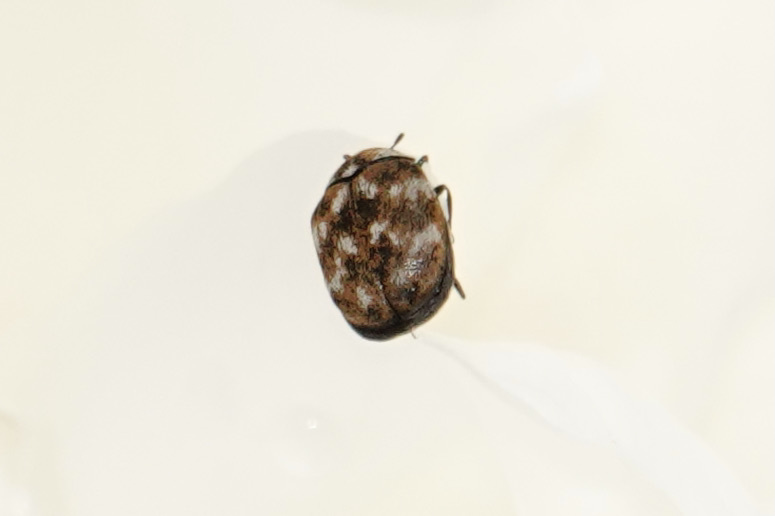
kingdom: Animalia
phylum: Arthropoda
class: Insecta
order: Coleoptera
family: Dermestidae
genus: Anthrenus
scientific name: Anthrenus verbasci
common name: Varied carpet beetle
